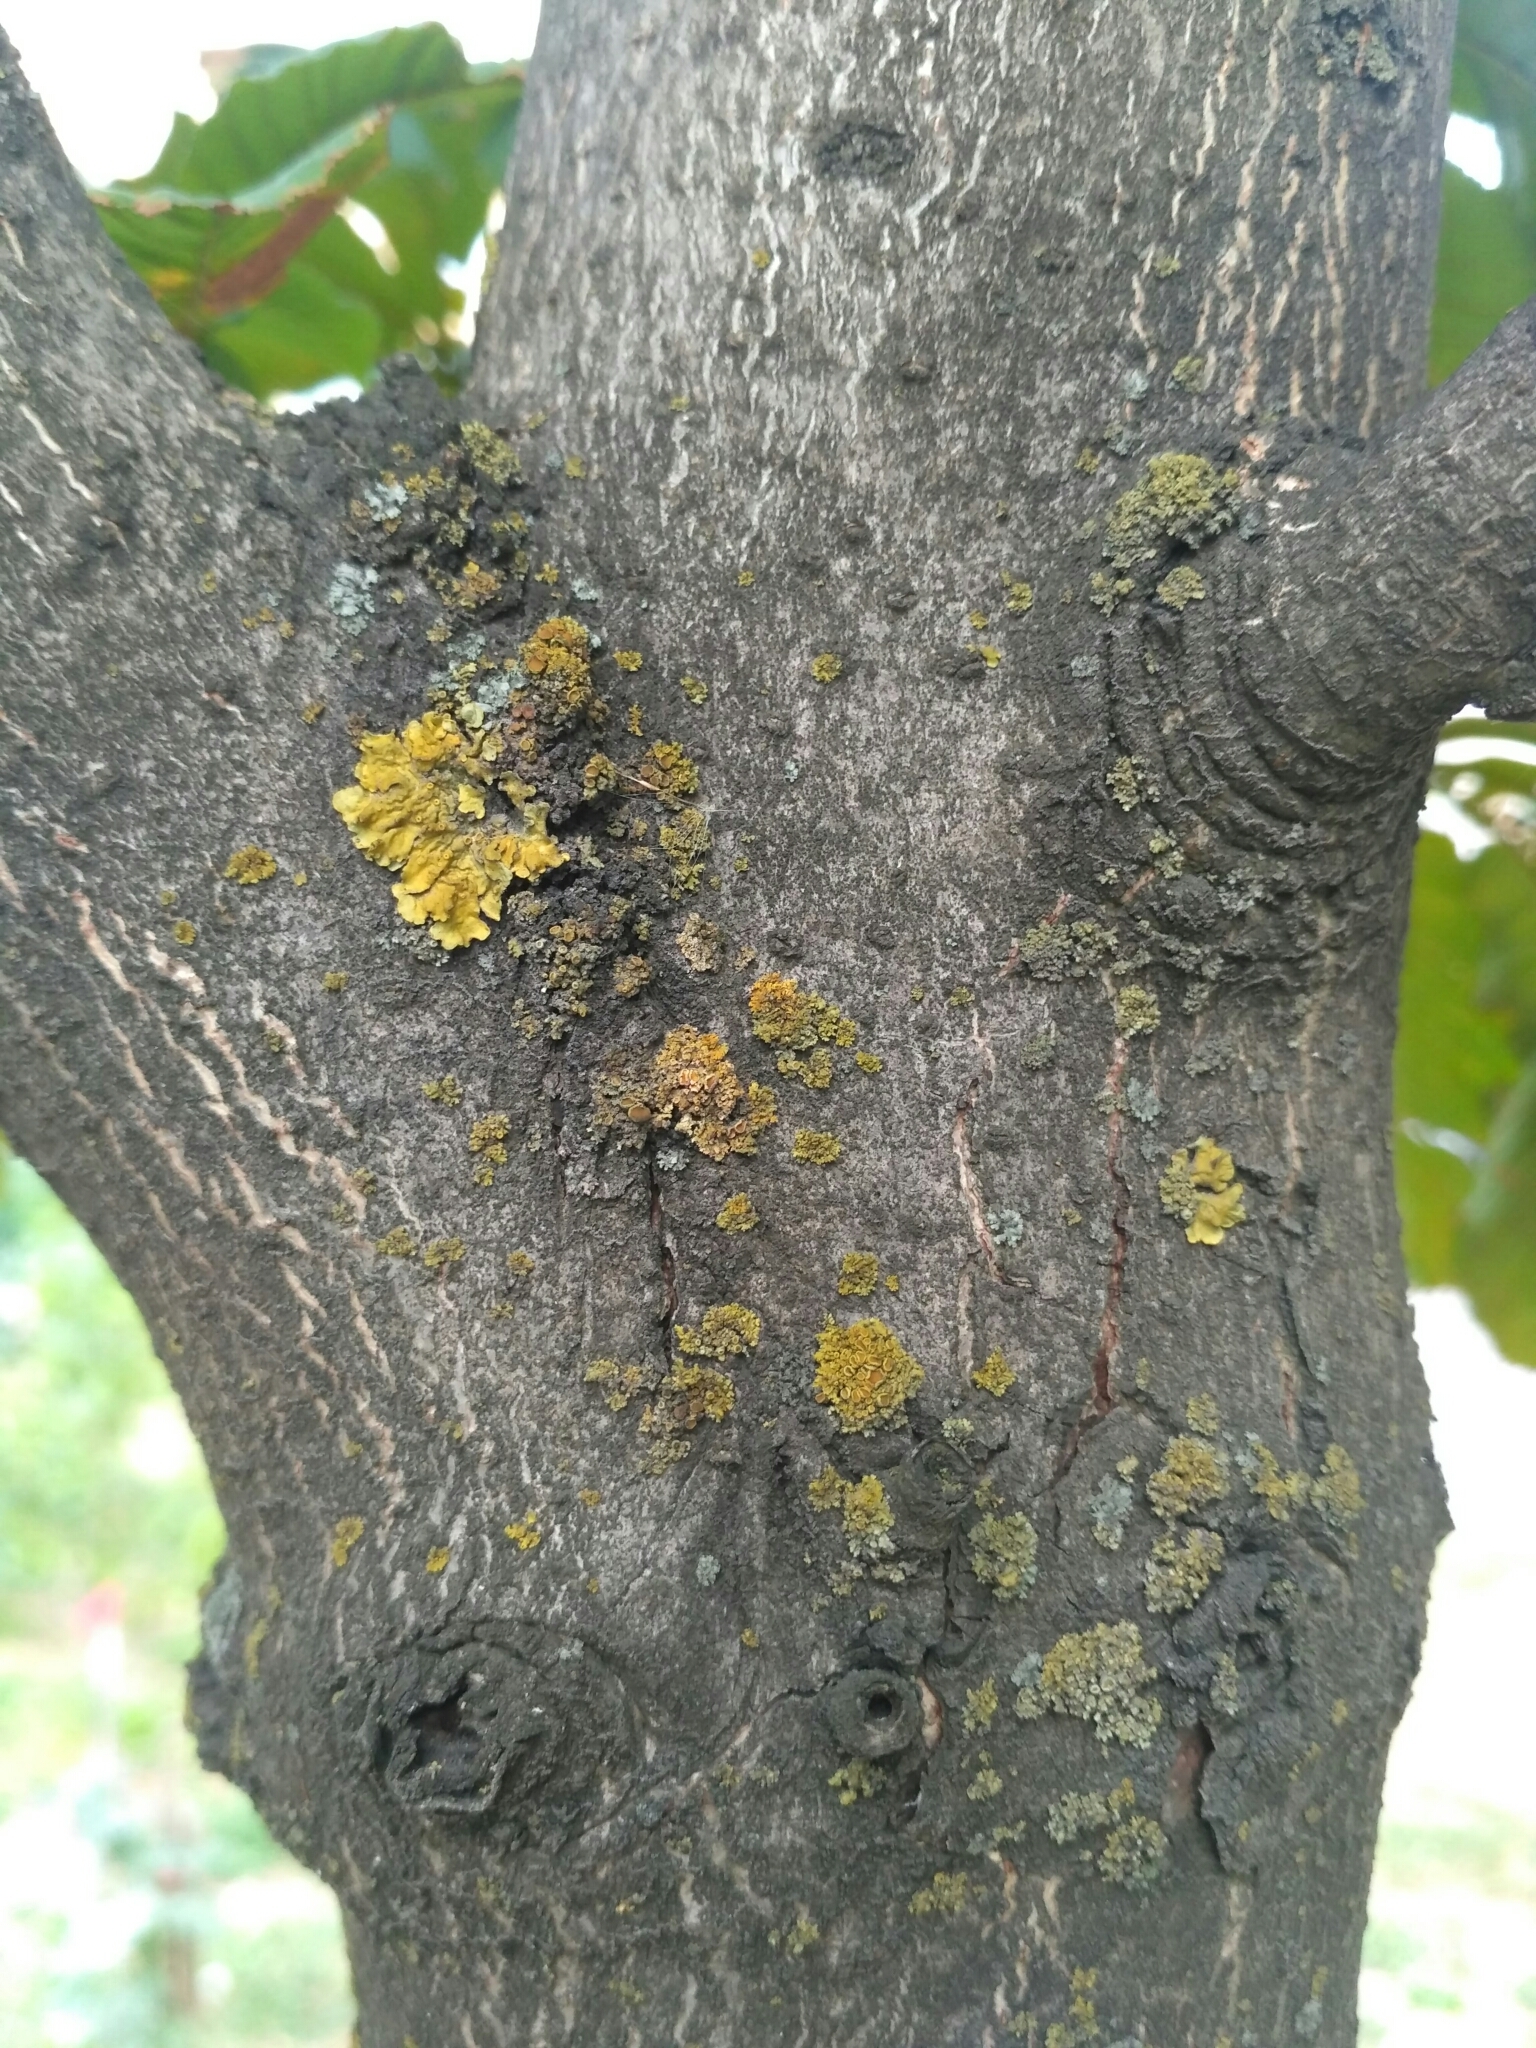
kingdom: Fungi
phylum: Ascomycota
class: Lecanoromycetes
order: Teloschistales
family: Teloschistaceae
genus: Xanthoria
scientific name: Xanthoria parietina
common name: Common orange lichen
